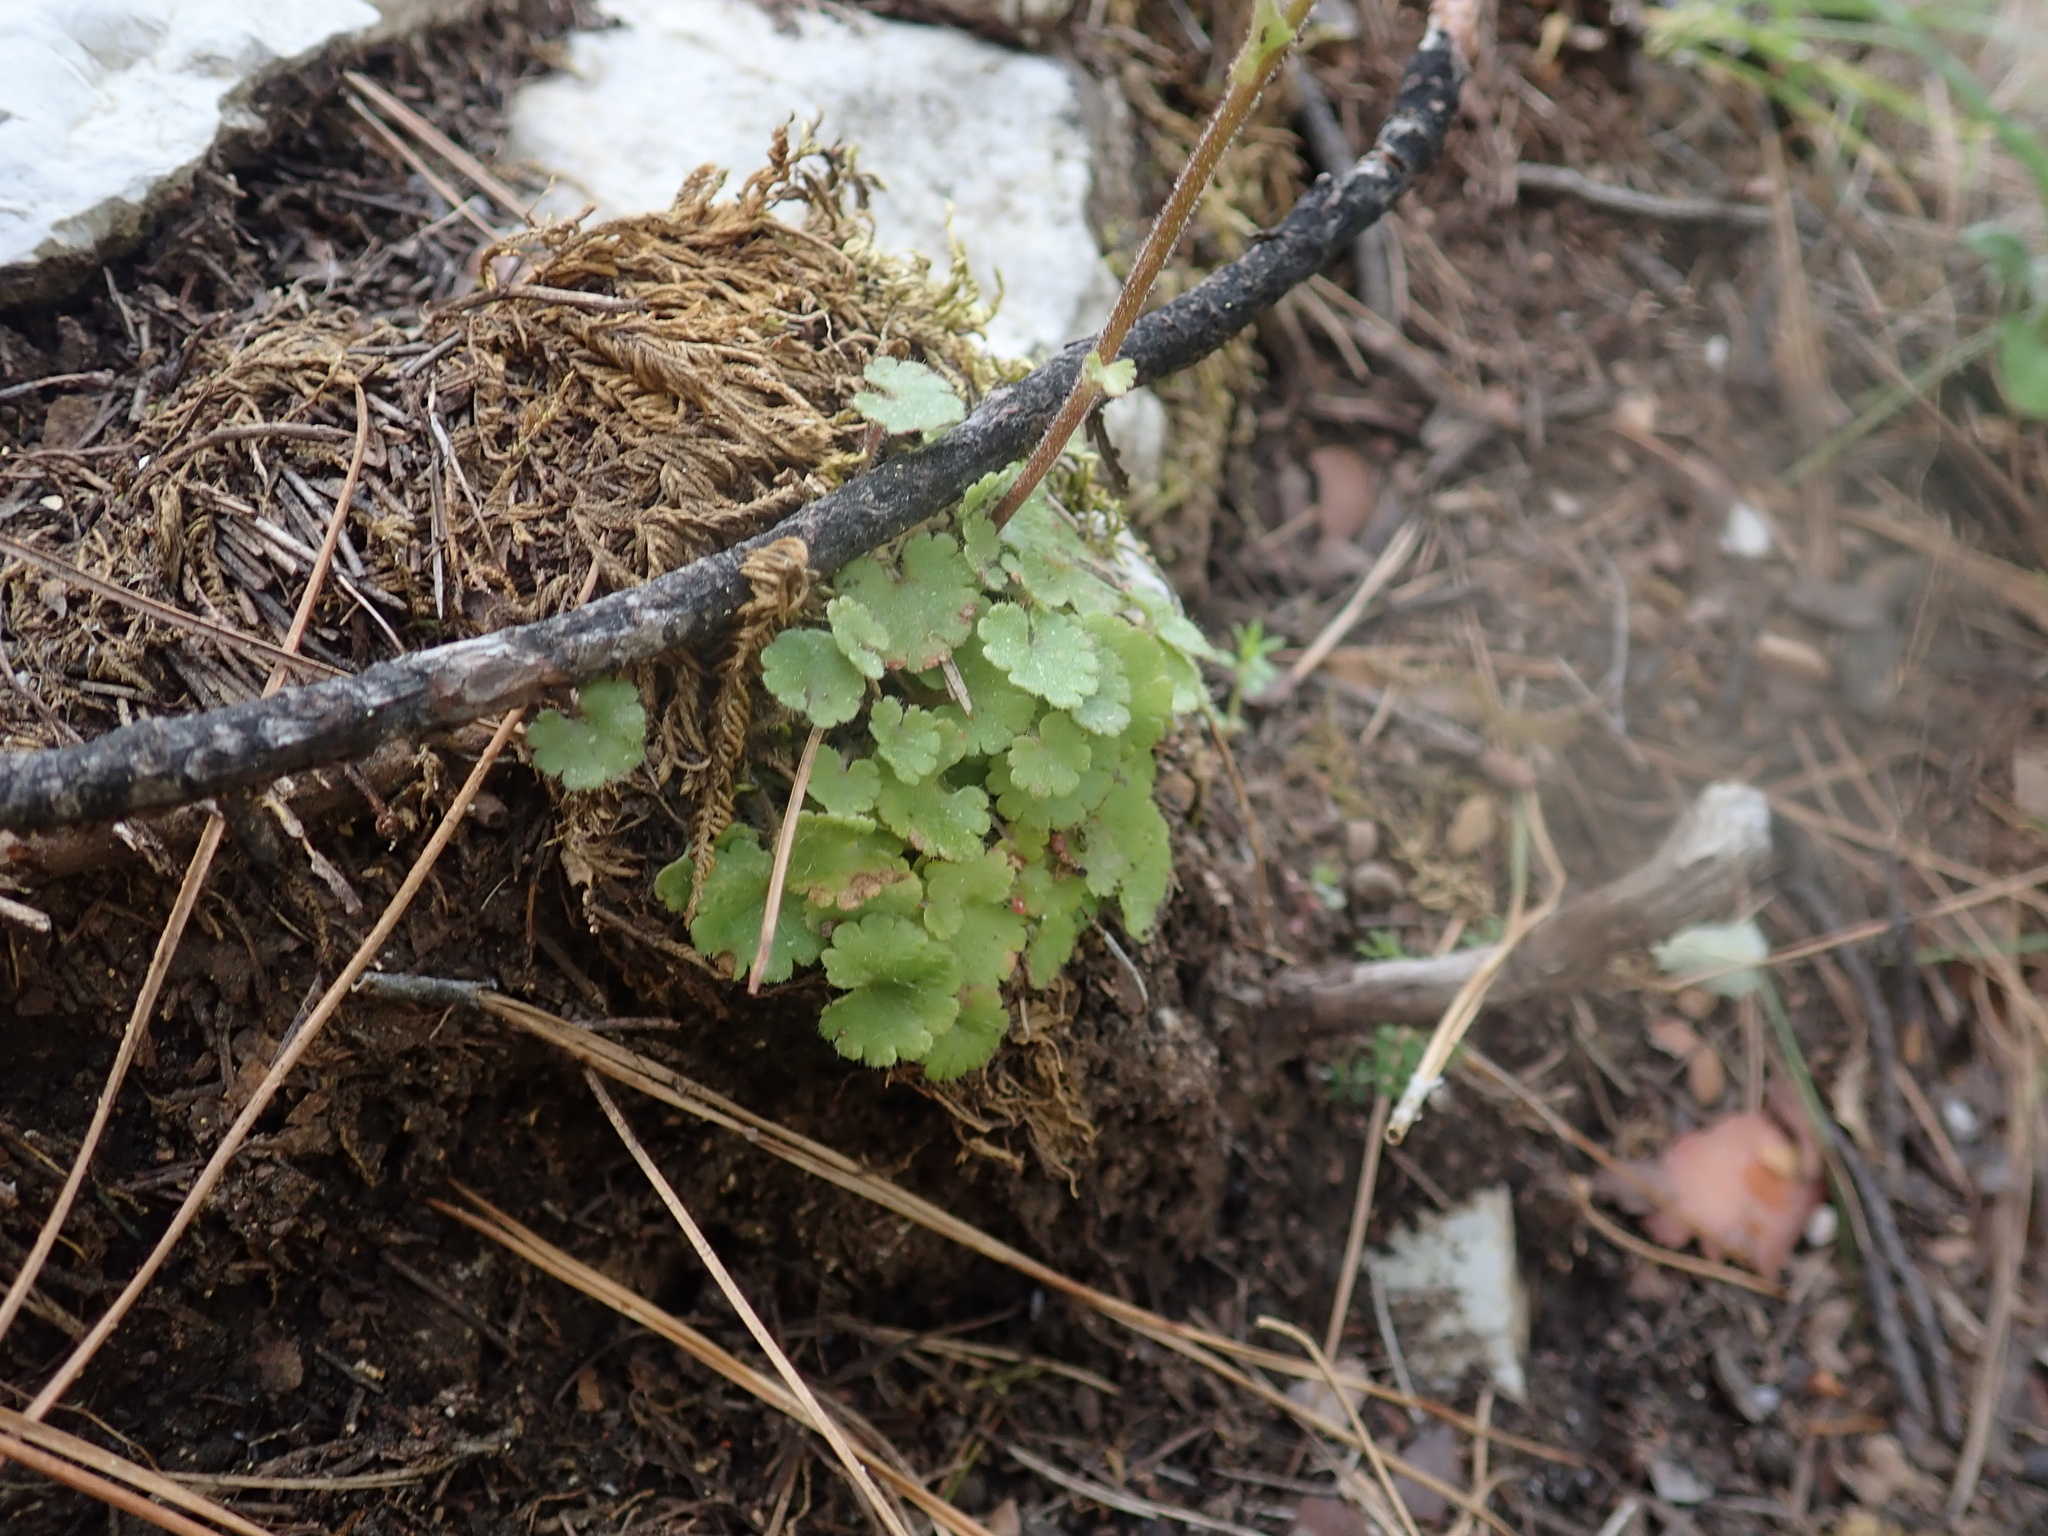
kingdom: Plantae
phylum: Tracheophyta
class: Magnoliopsida
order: Saxifragales
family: Saxifragaceae
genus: Saxifraga
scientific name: Saxifraga carpetana
